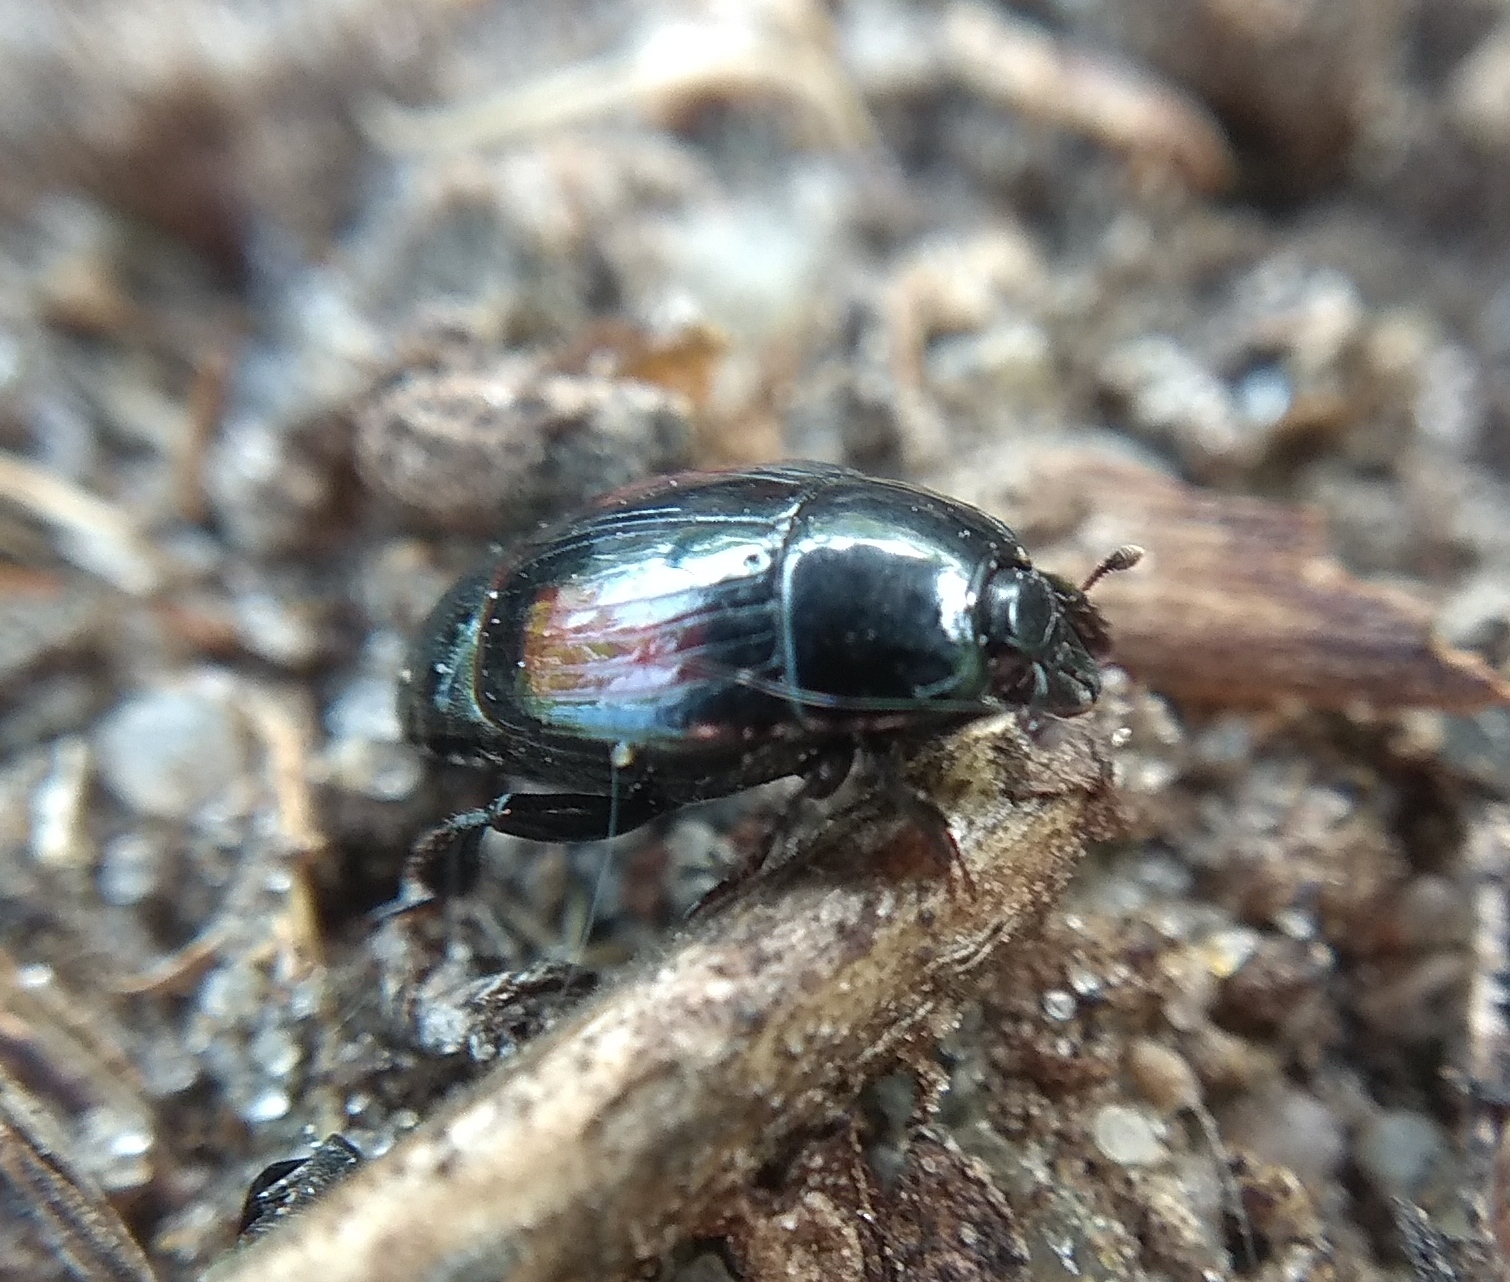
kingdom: Animalia
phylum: Arthropoda
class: Insecta
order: Coleoptera
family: Histeridae
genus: Margarinotus
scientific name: Margarinotus purpurascens
